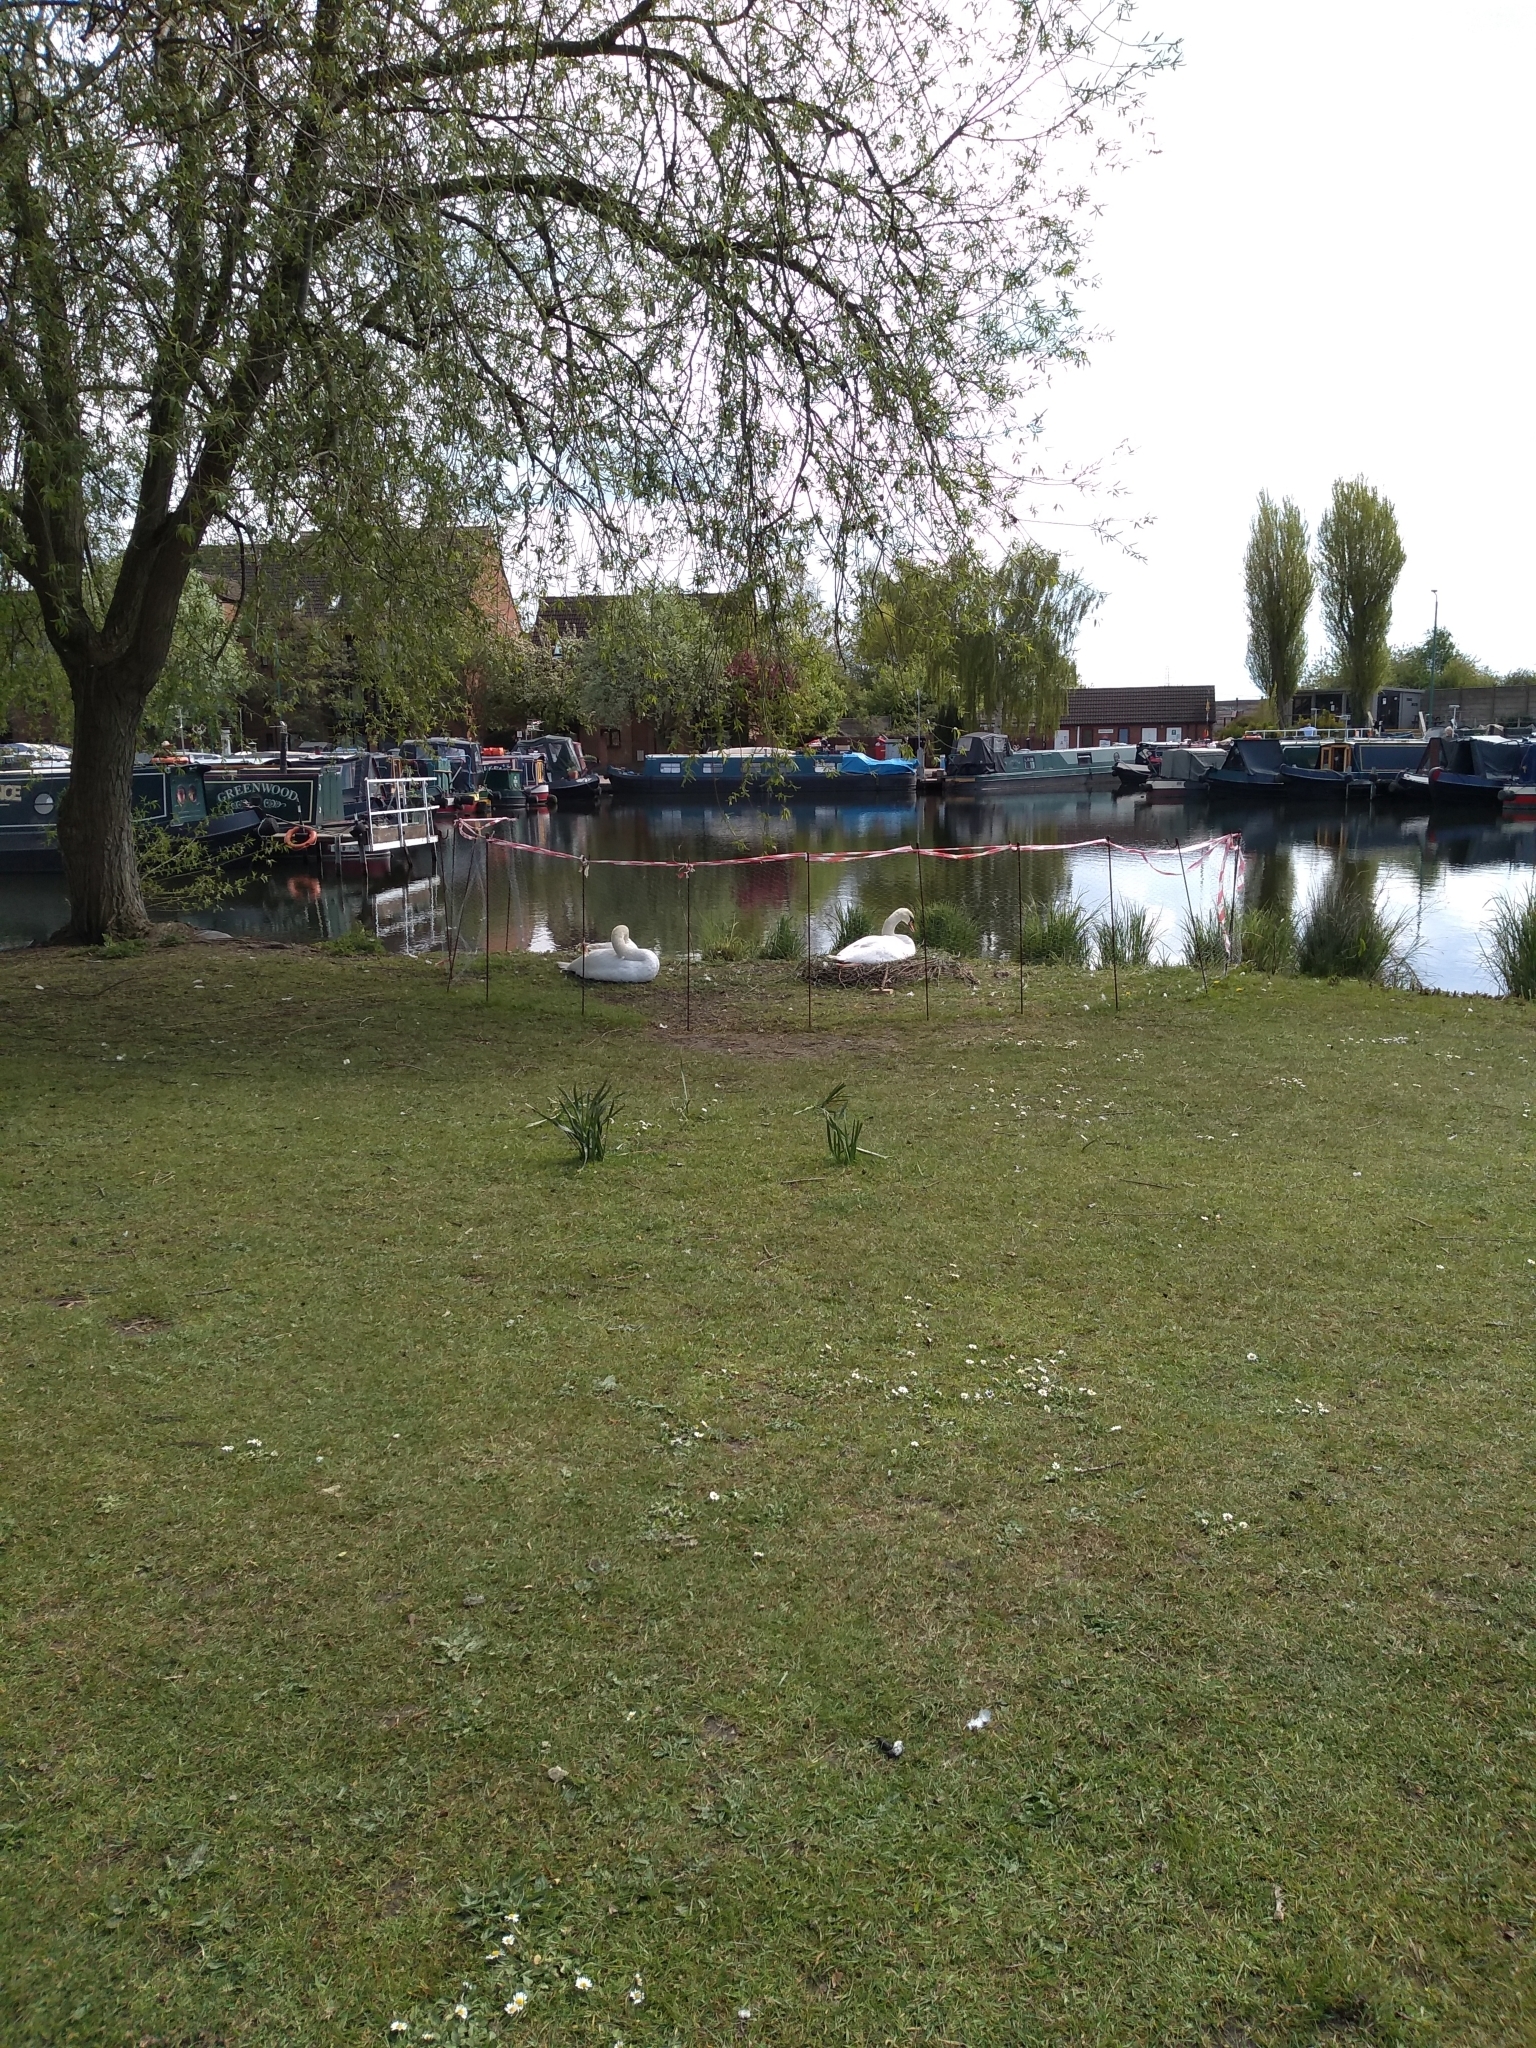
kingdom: Animalia
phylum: Chordata
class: Aves
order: Anseriformes
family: Anatidae
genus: Cygnus
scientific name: Cygnus olor
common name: Mute swan
